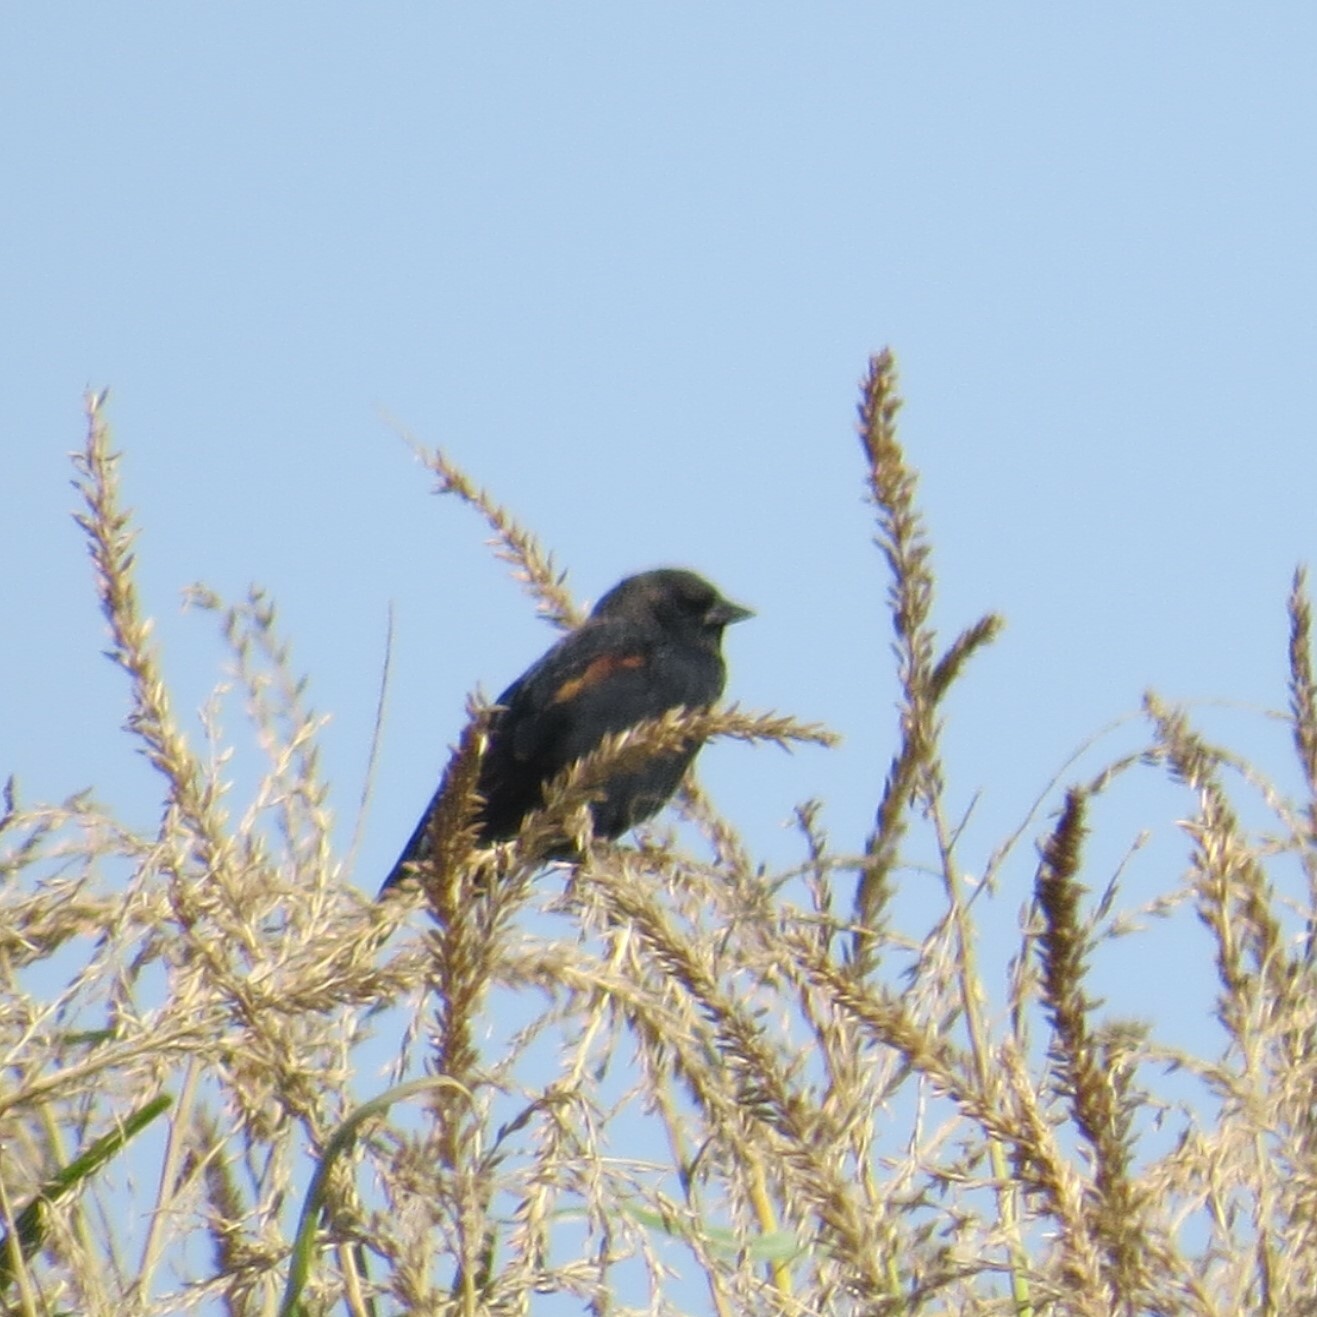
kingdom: Animalia
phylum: Chordata
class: Aves
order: Passeriformes
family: Icteridae
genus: Agelaius
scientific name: Agelaius phoeniceus
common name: Red-winged blackbird
